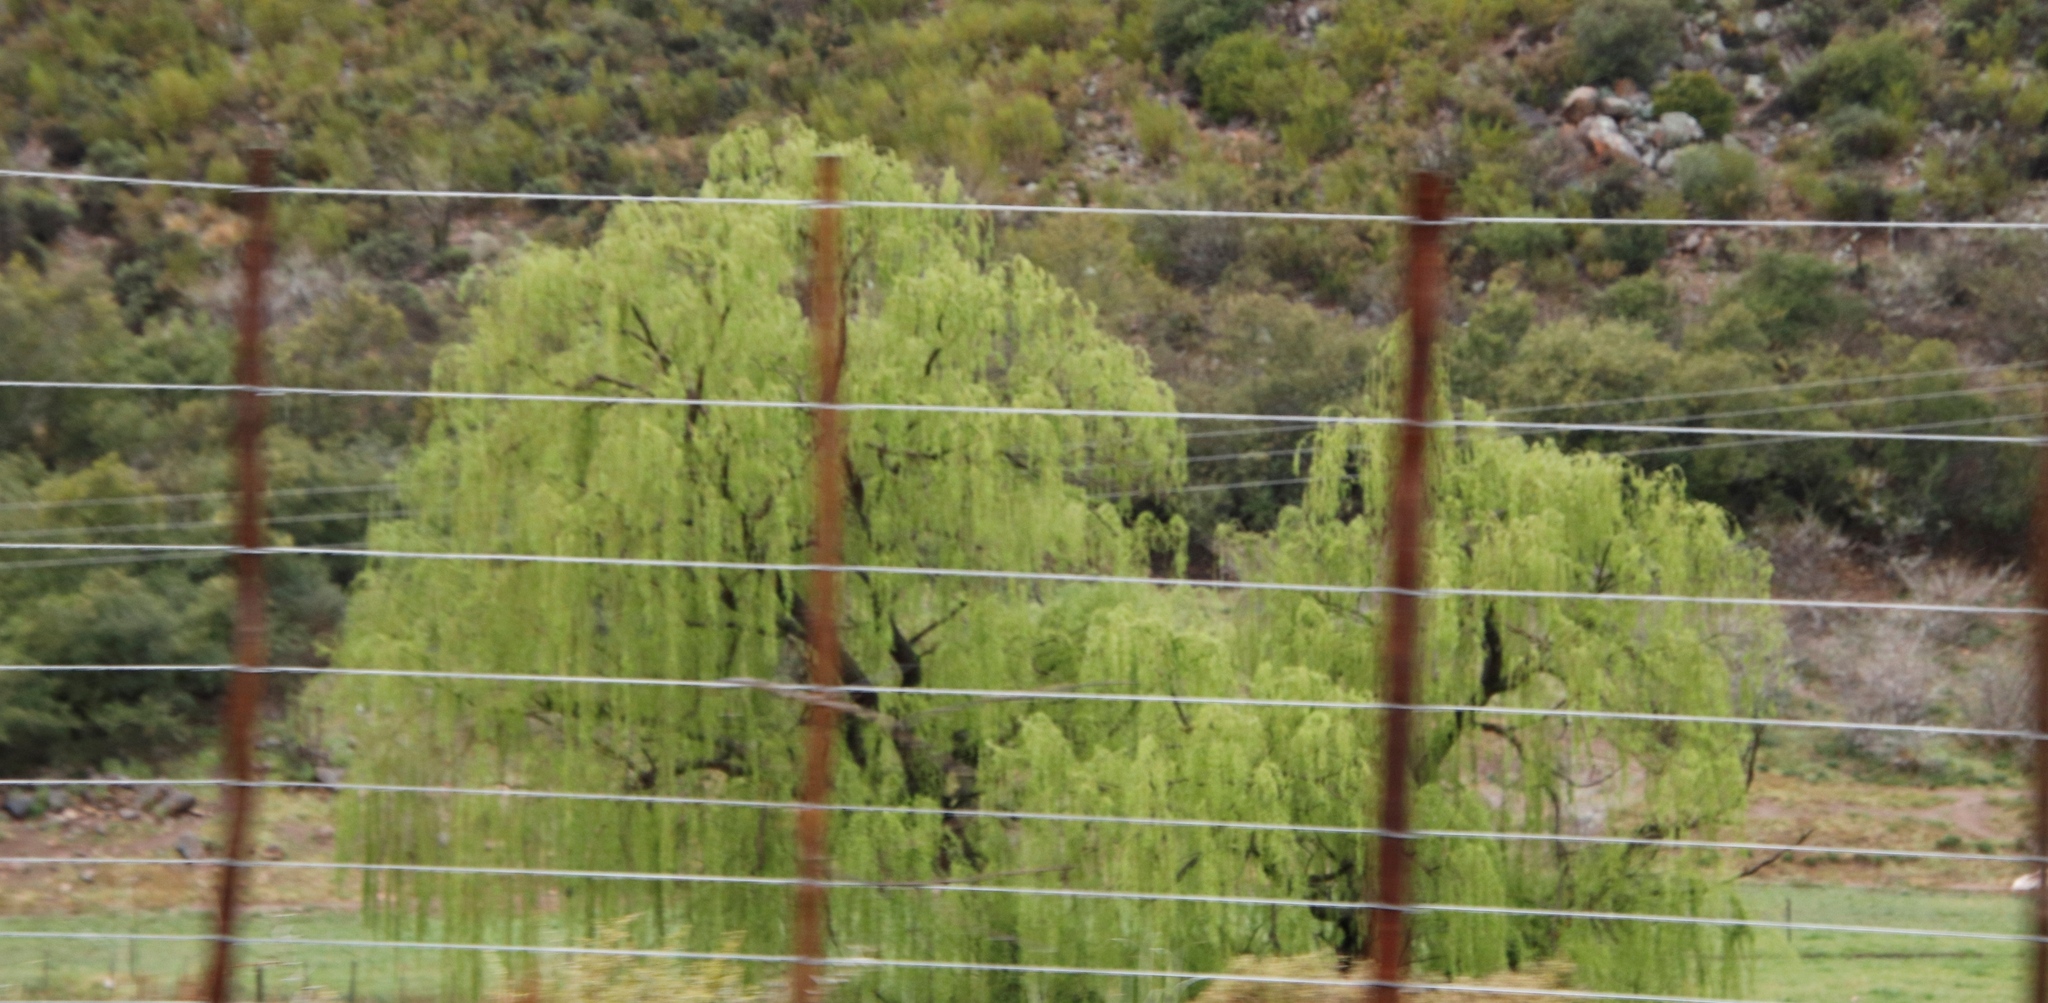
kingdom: Plantae
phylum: Tracheophyta
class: Magnoliopsida
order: Malpighiales
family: Salicaceae
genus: Salix
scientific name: Salix babylonica
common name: Weeping willow
